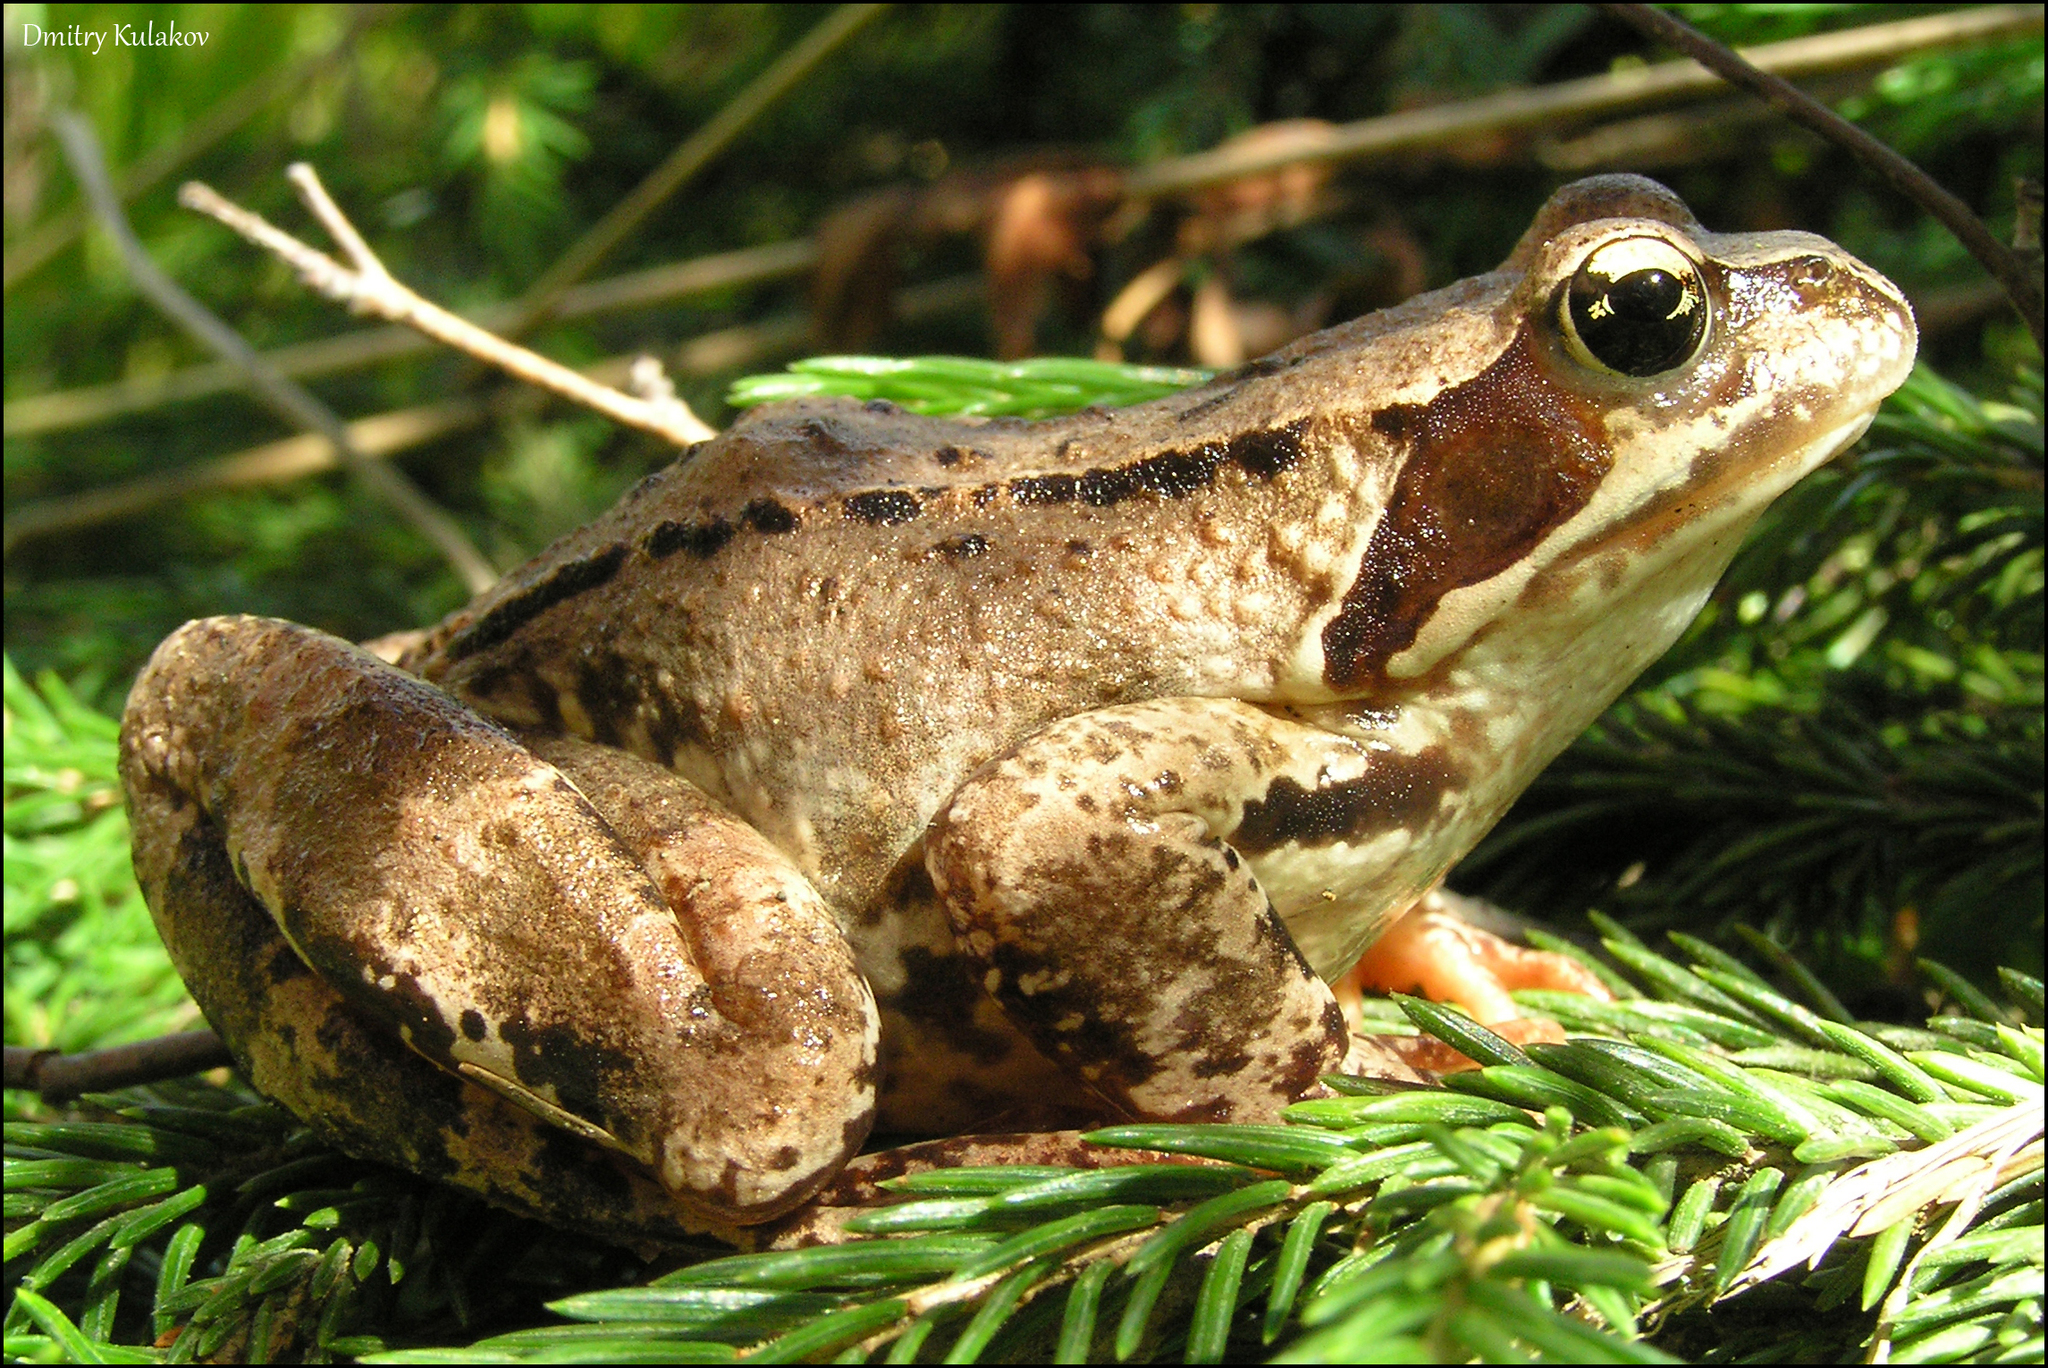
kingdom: Animalia
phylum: Chordata
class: Amphibia
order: Anura
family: Ranidae
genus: Rana
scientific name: Rana temporaria
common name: Common frog
